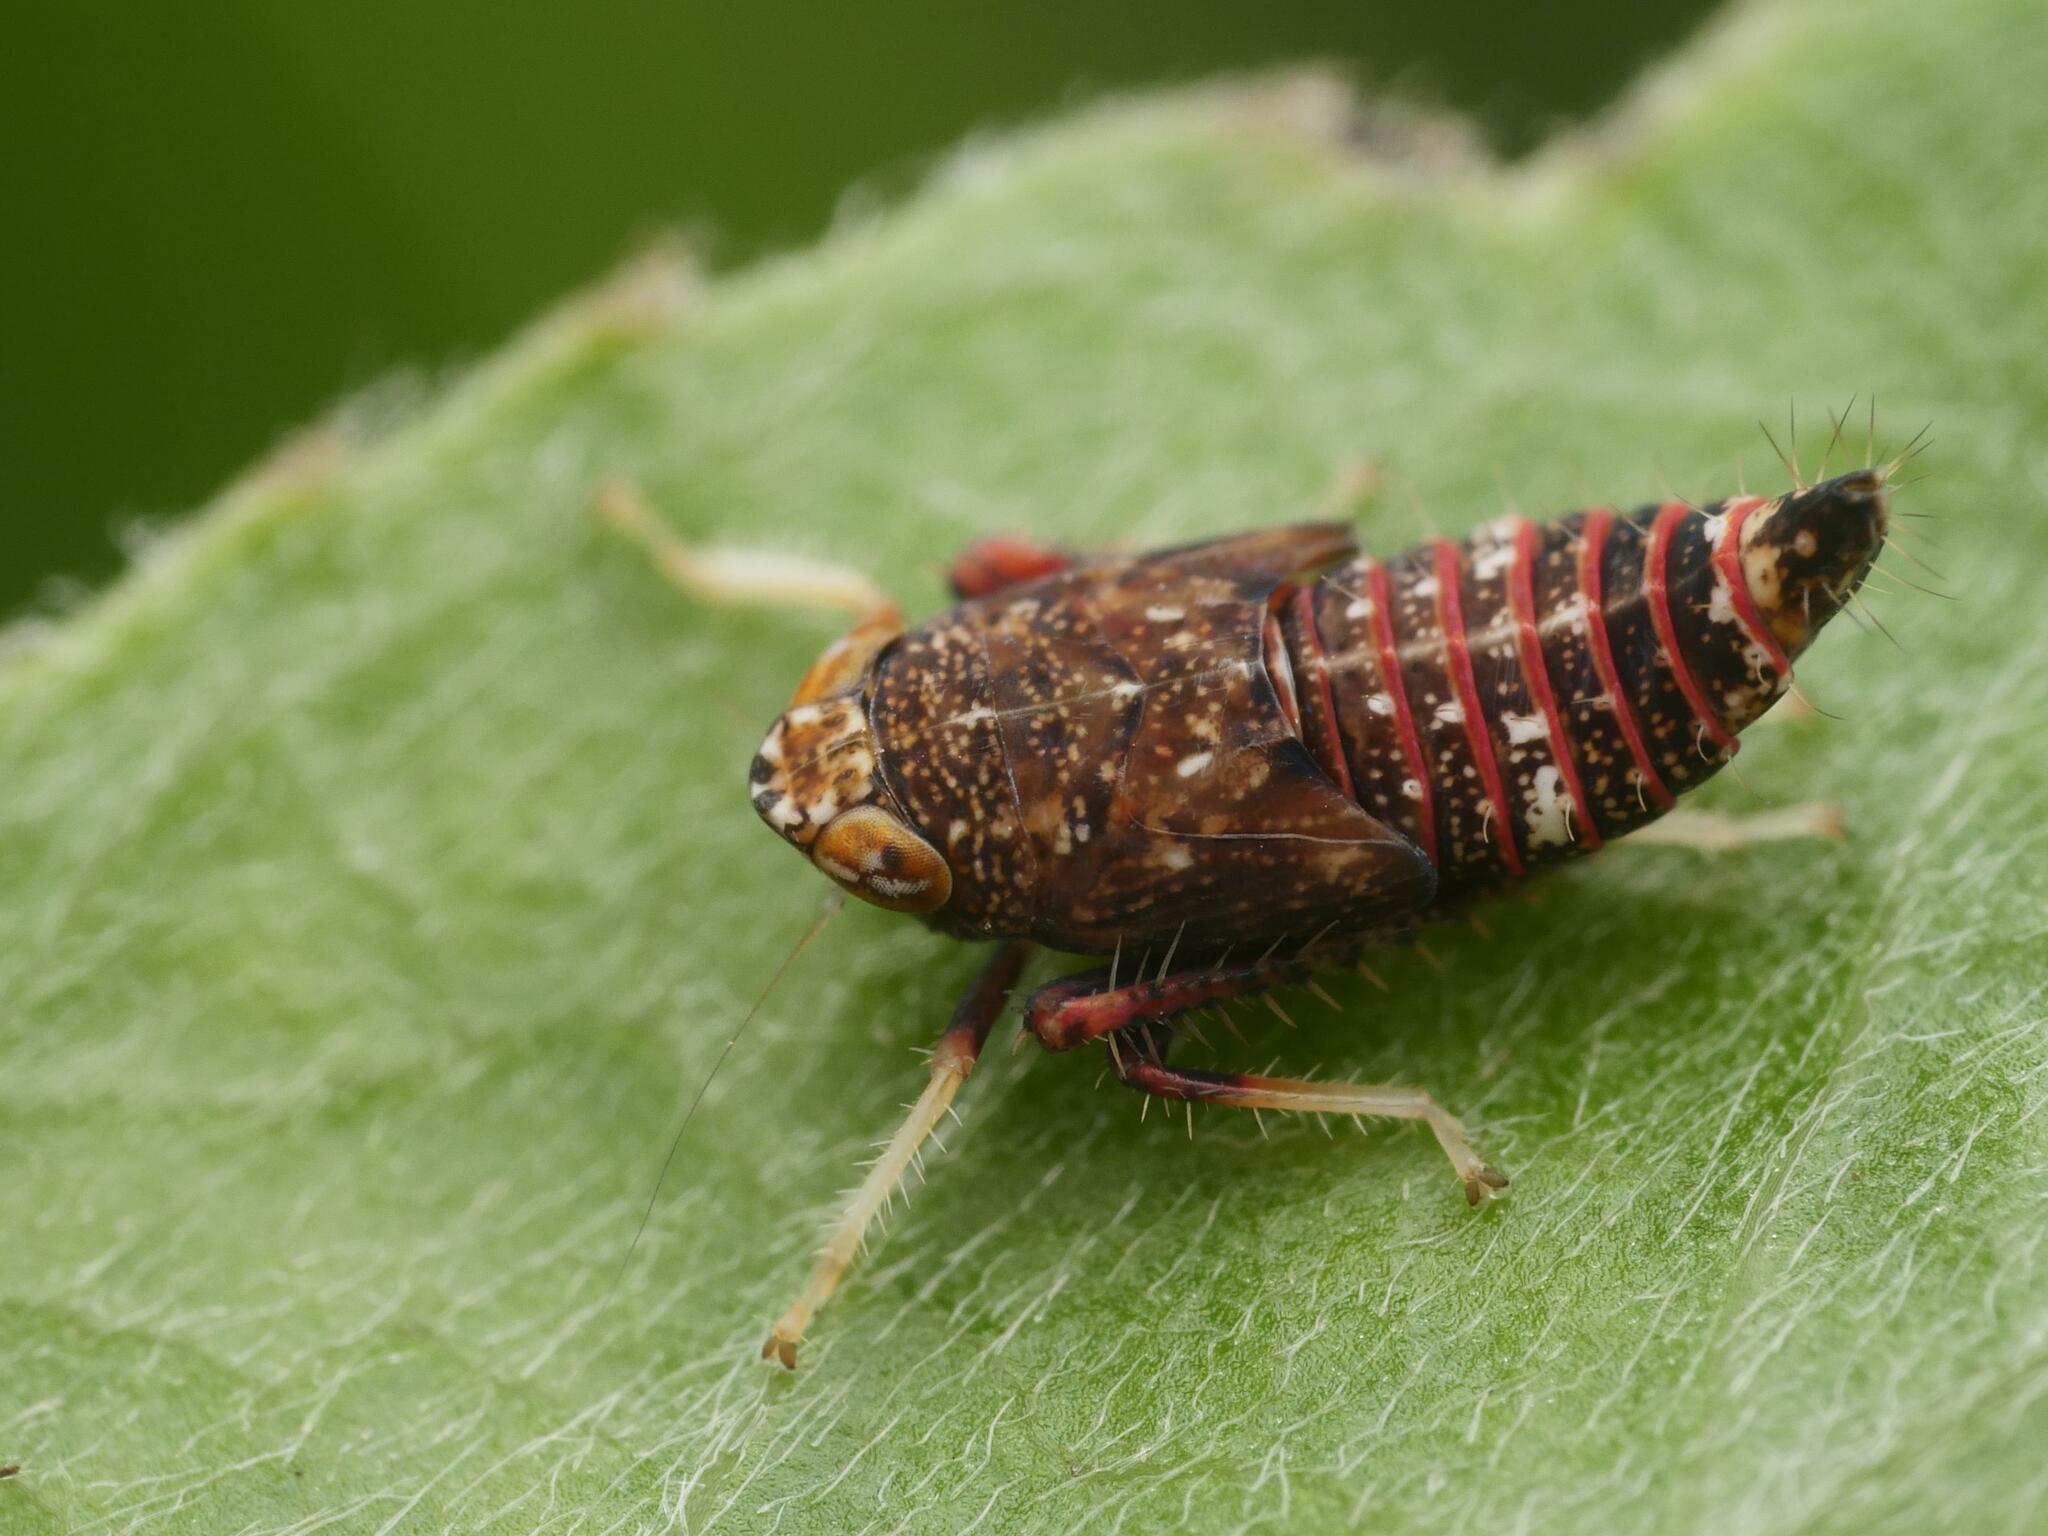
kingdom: Animalia
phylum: Arthropoda
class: Insecta
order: Hemiptera
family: Cicadellidae
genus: Orientus
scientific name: Orientus ishidae
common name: Japanese leafhopper
